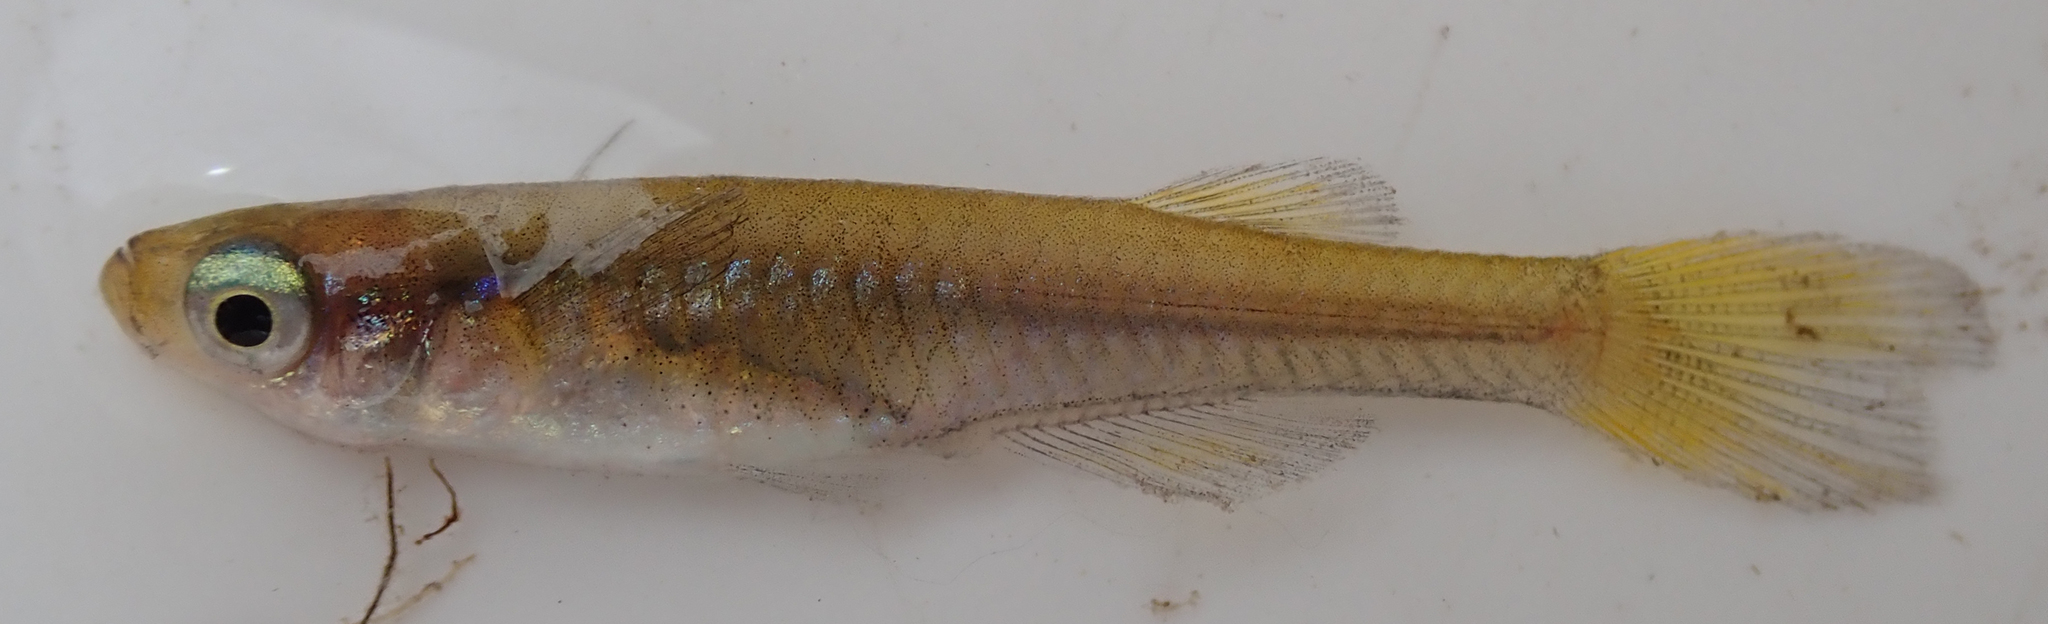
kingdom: Animalia
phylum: Chordata
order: Cyprinodontiformes
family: Poeciliidae
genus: Micropanchax
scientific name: Micropanchax johnstoni
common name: Johnston's topminnow
